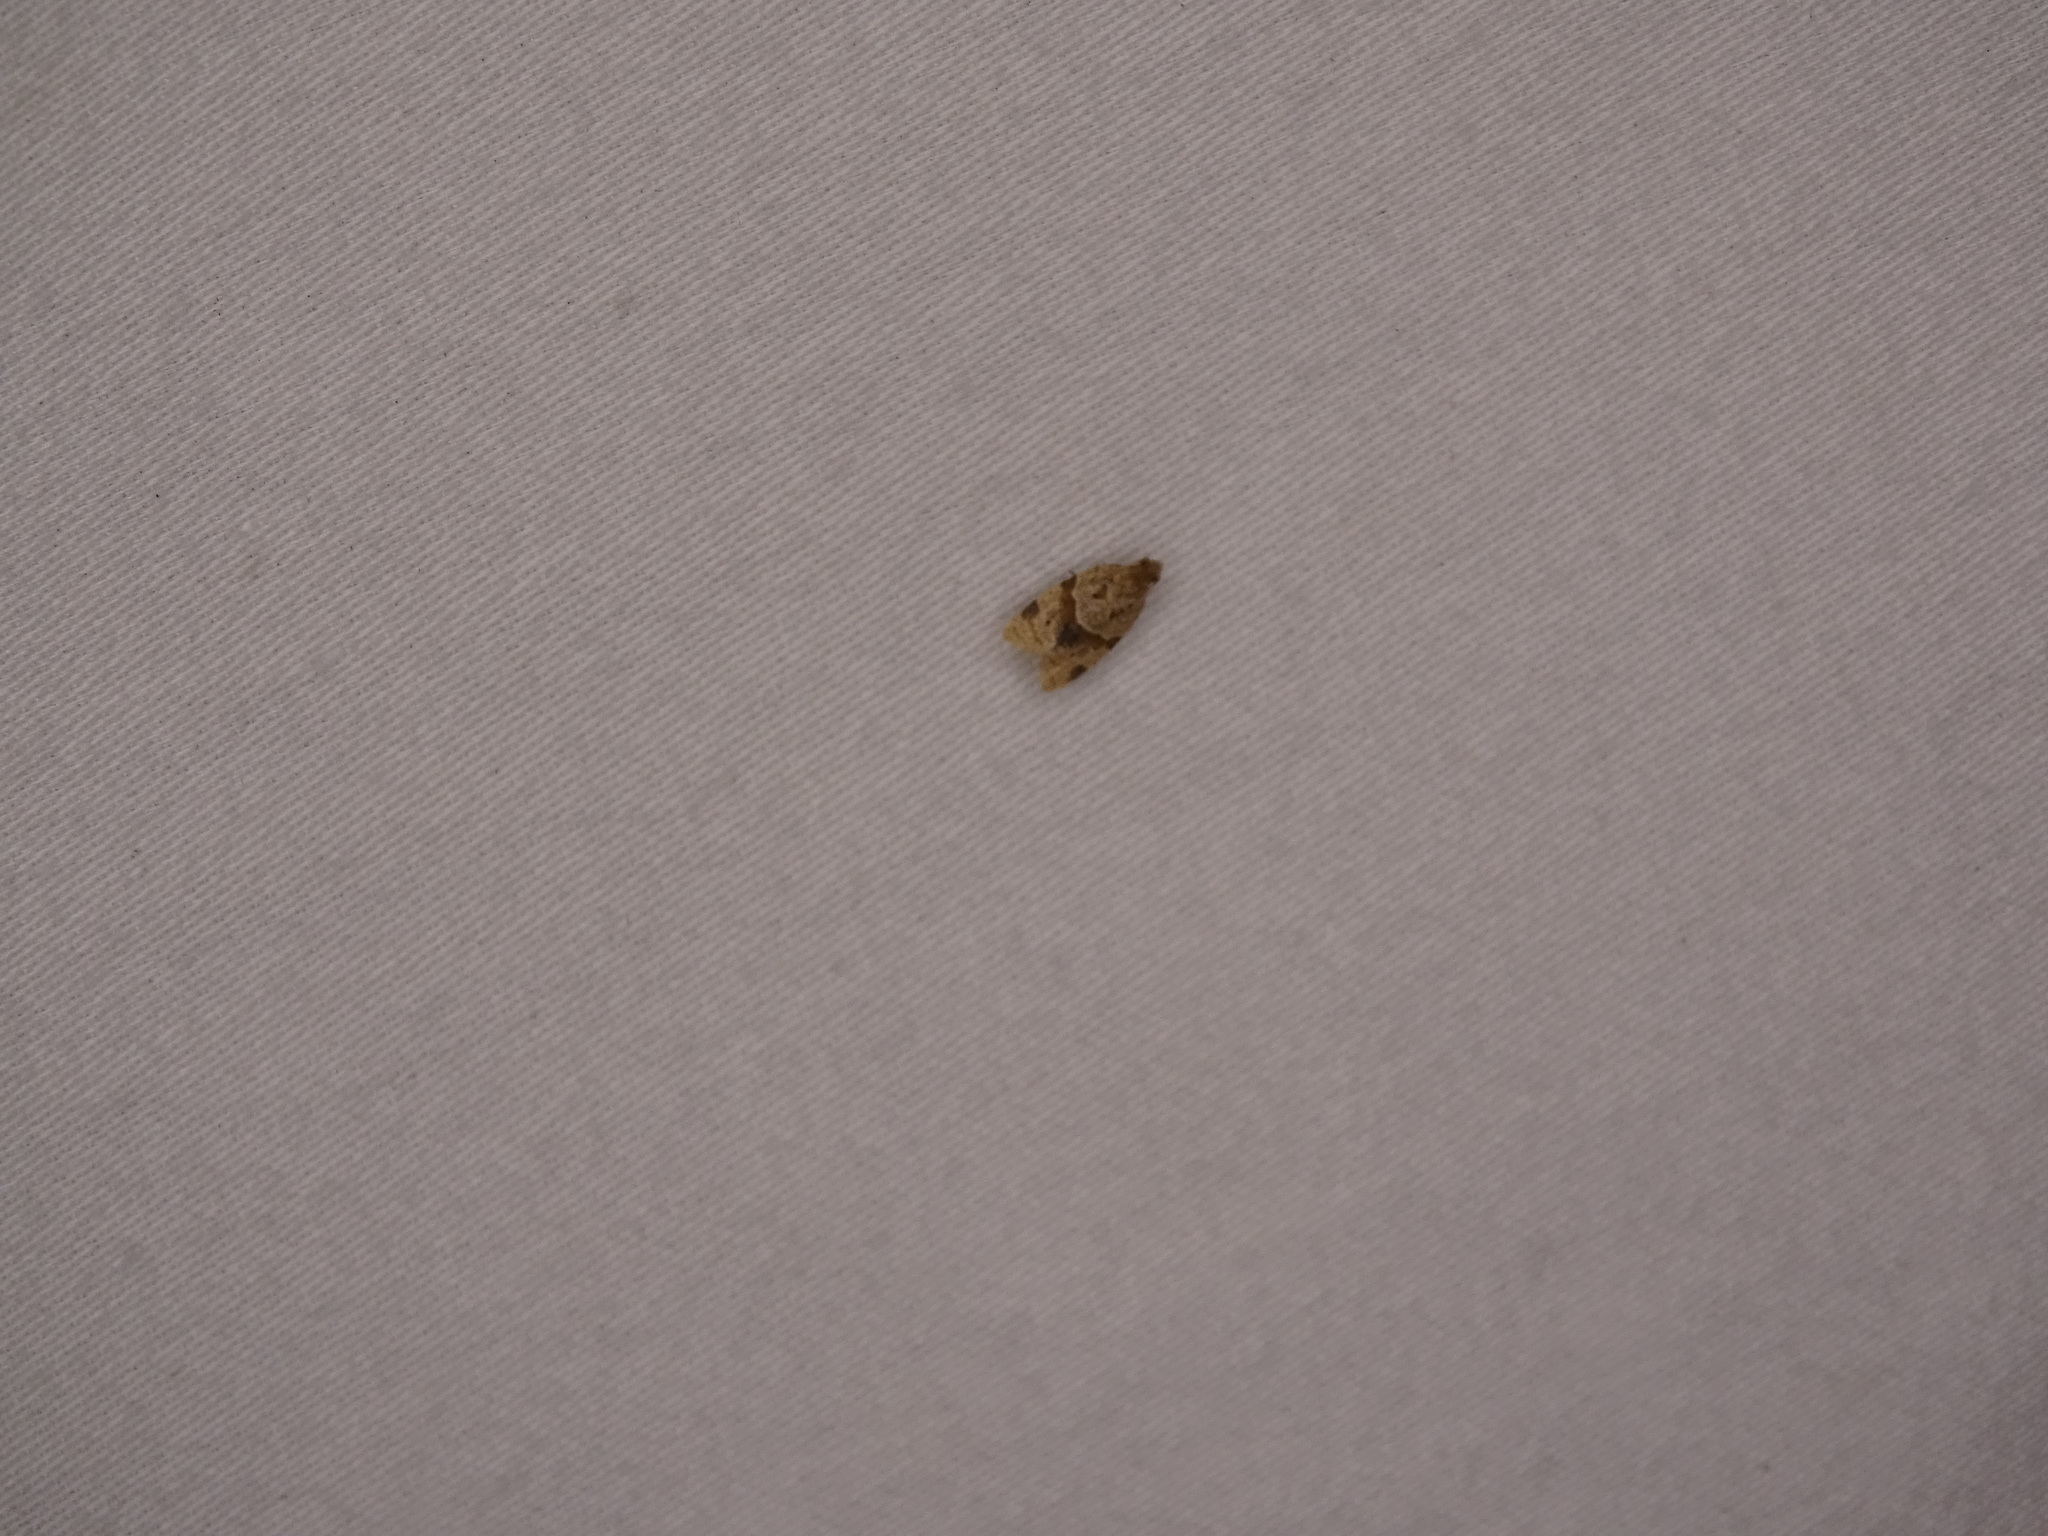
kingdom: Animalia
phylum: Arthropoda
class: Insecta
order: Lepidoptera
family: Tortricidae
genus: Clepsis
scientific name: Clepsis peritana
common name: Garden tortrix
